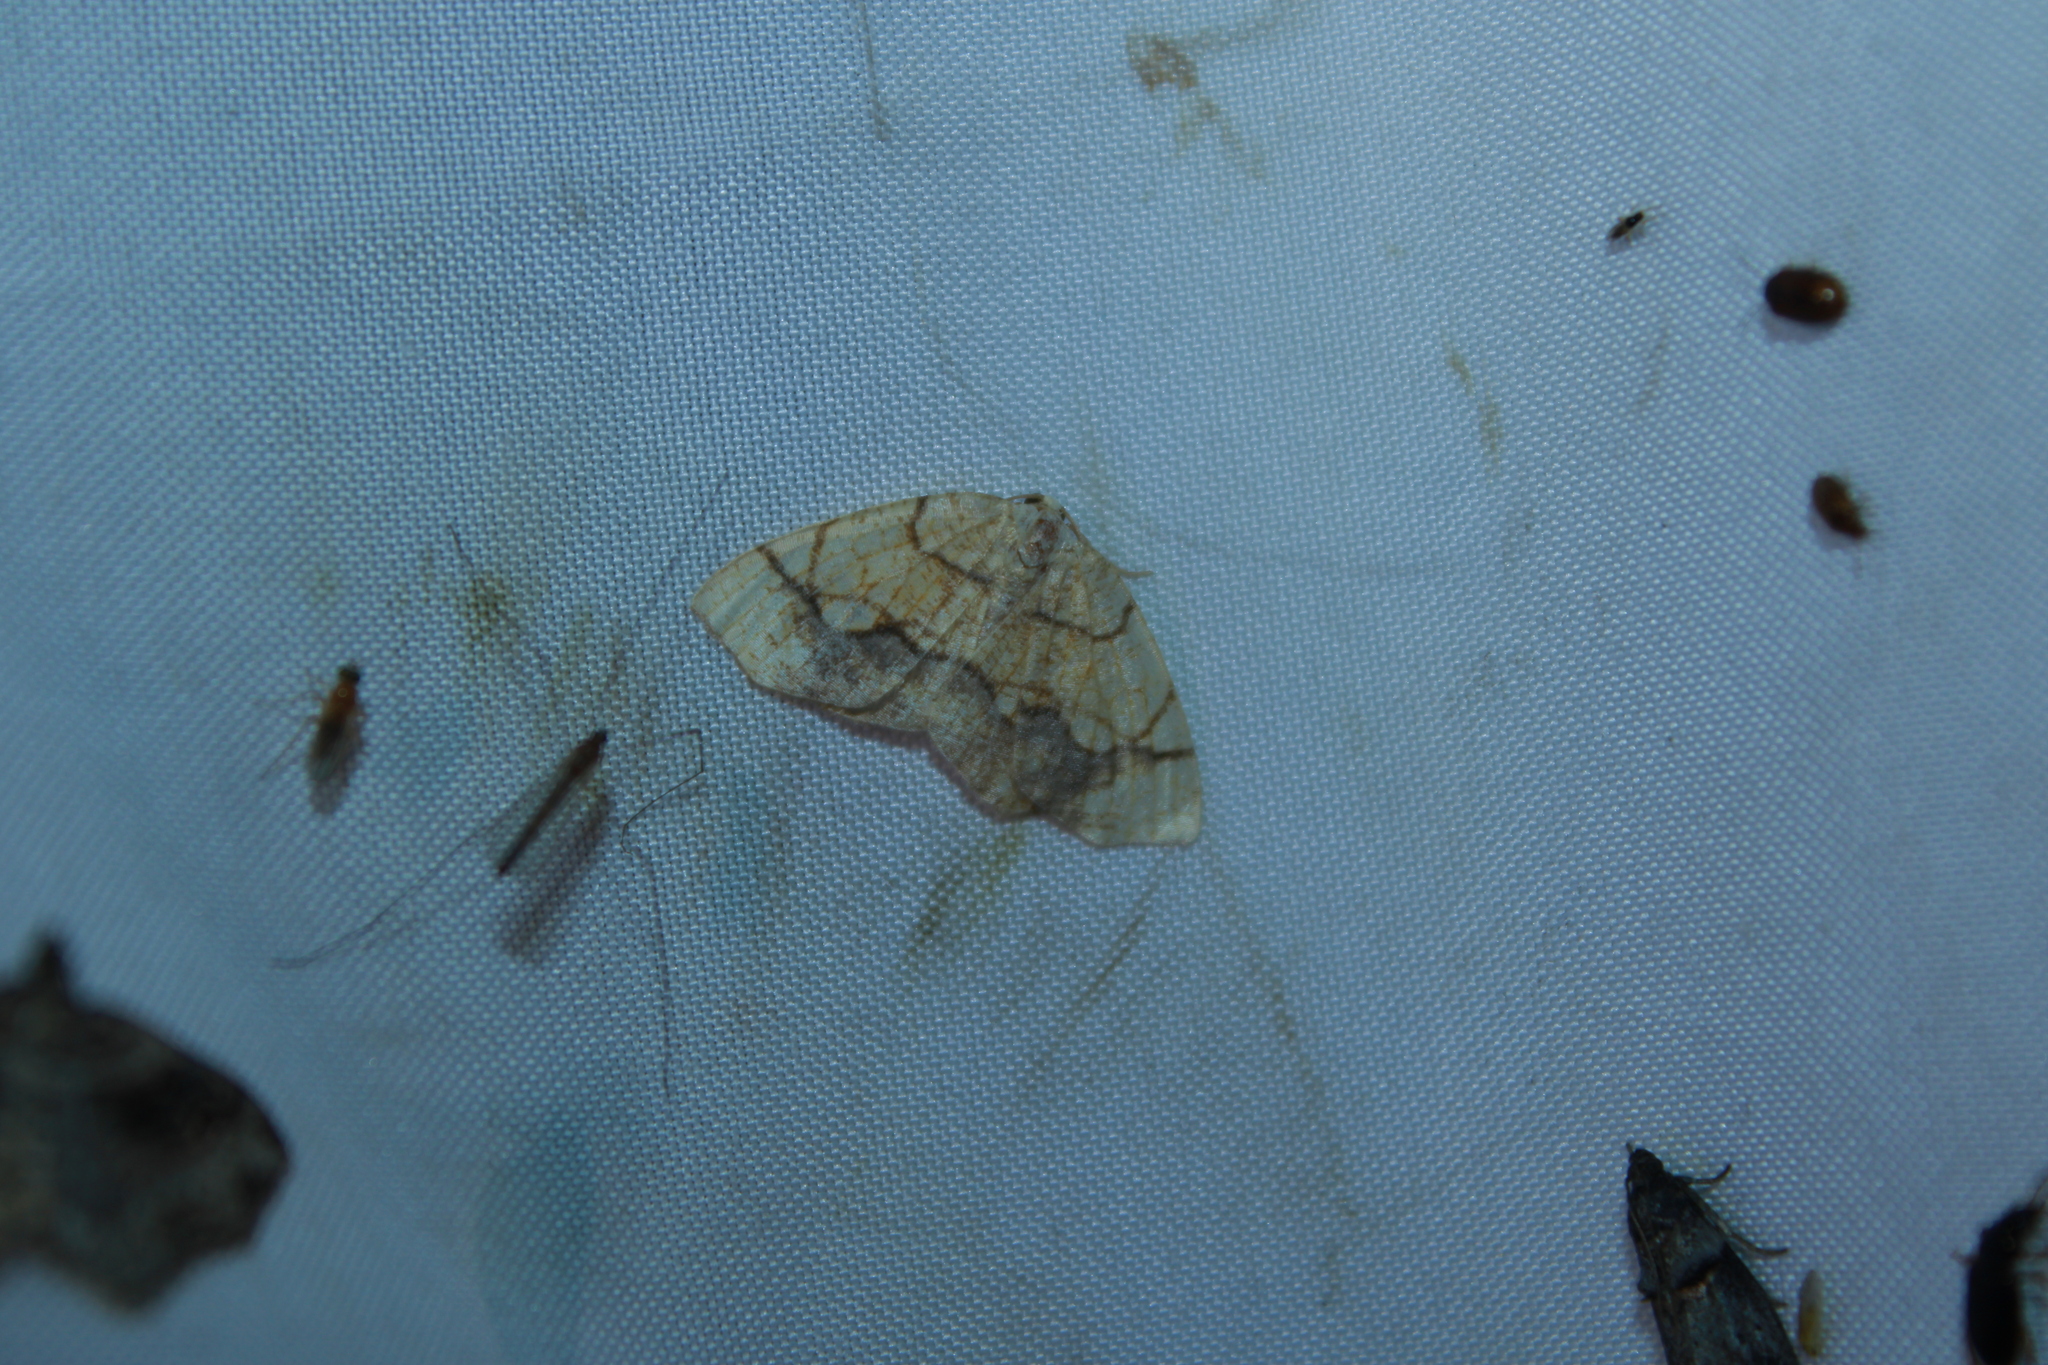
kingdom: Animalia
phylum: Arthropoda
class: Insecta
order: Lepidoptera
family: Geometridae
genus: Nematocampa
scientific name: Nematocampa resistaria
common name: Horned spanworm moth
